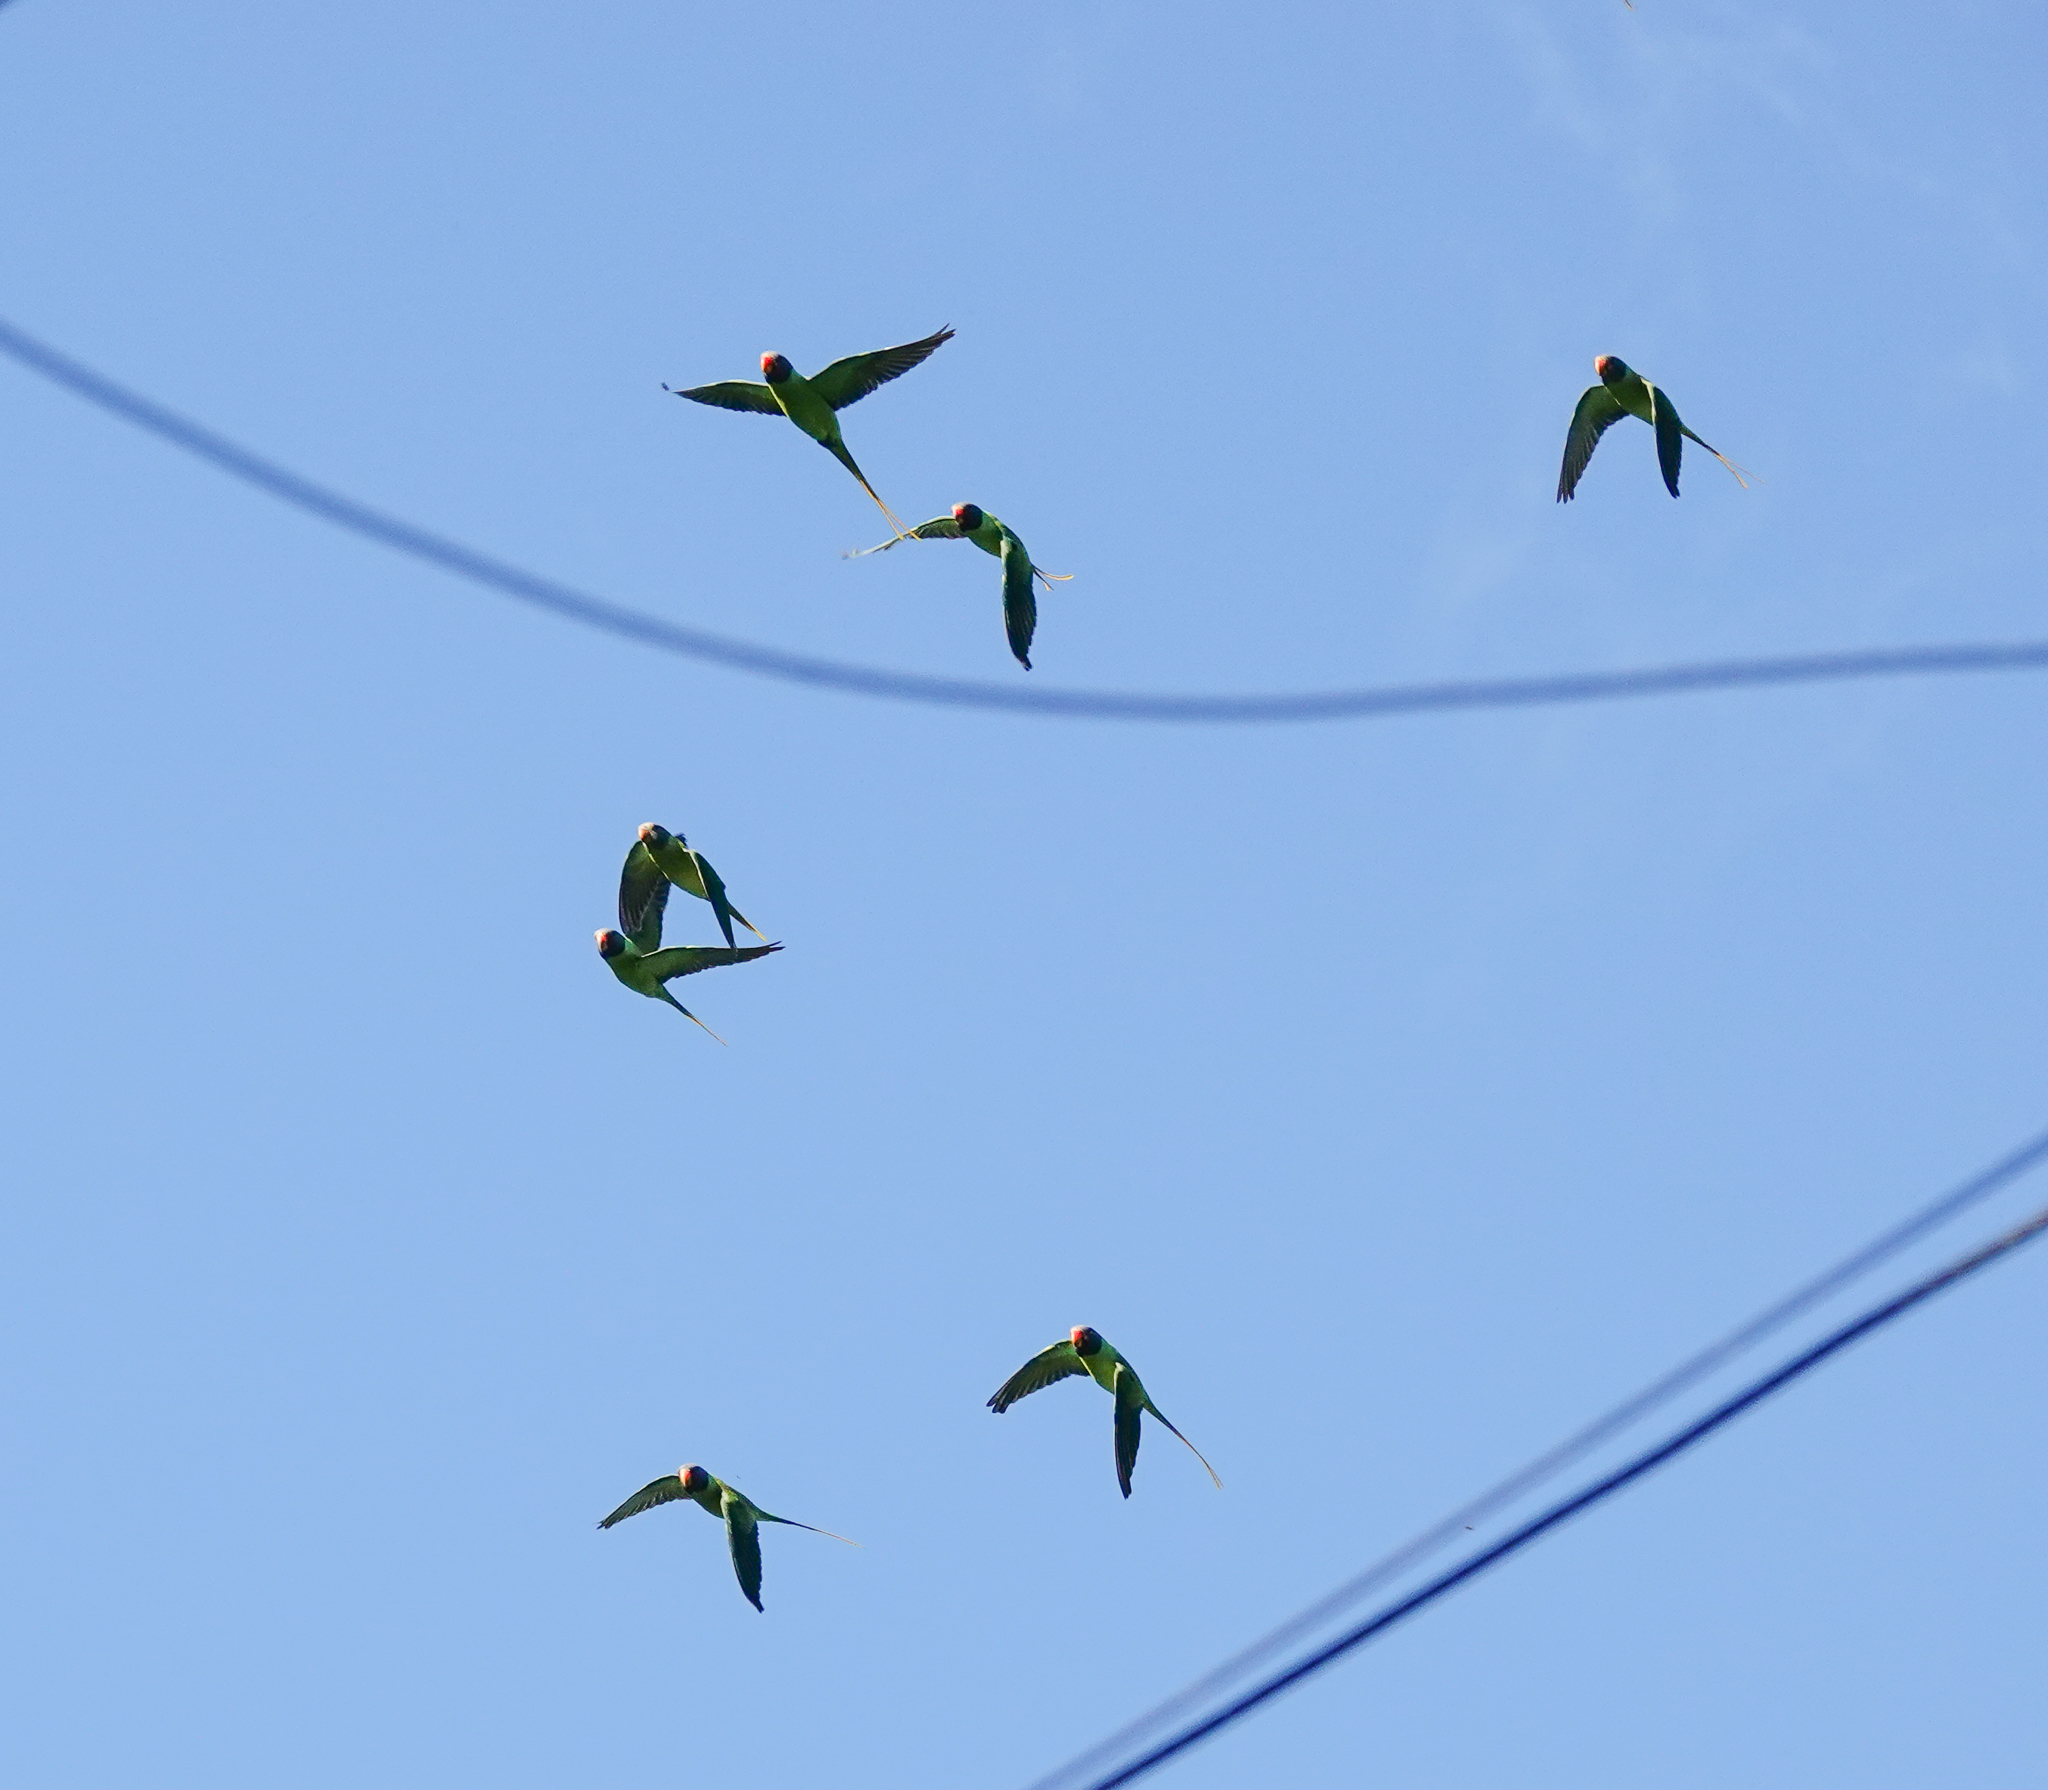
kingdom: Animalia
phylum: Chordata
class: Aves
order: Psittaciformes
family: Psittacidae
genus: Psittacula
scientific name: Psittacula finschii
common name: Grey-headed parakeet
